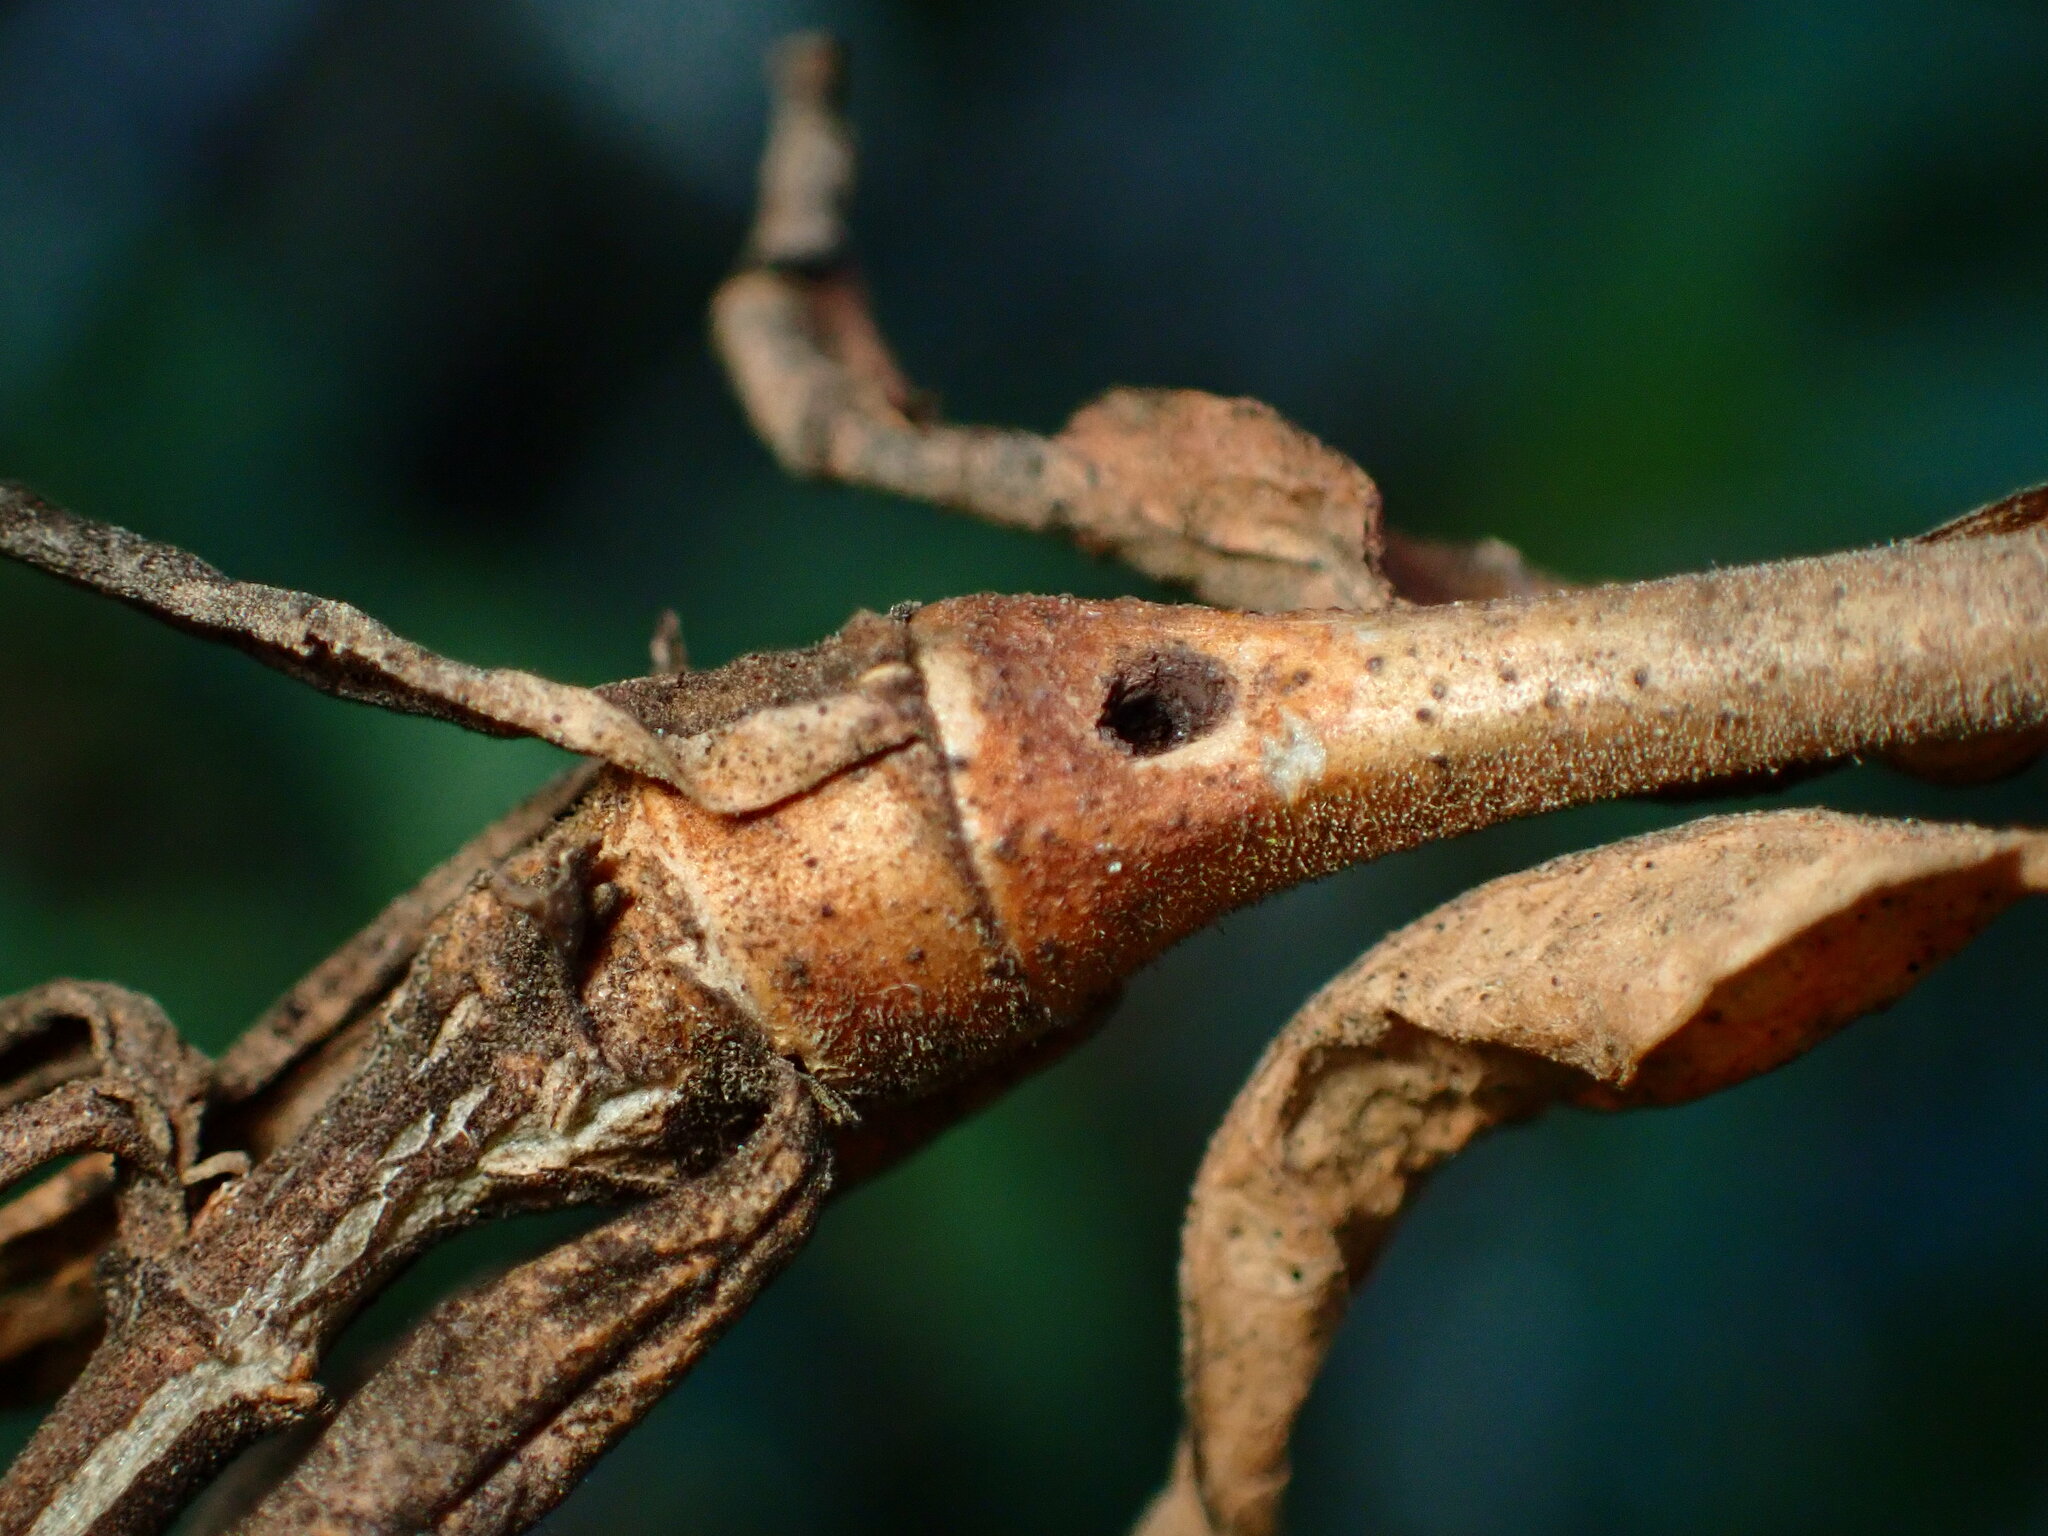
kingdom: Animalia
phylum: Arthropoda
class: Insecta
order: Diptera
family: Cecidomyiidae
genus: Neolasioptera
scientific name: Neolasioptera mimuli
